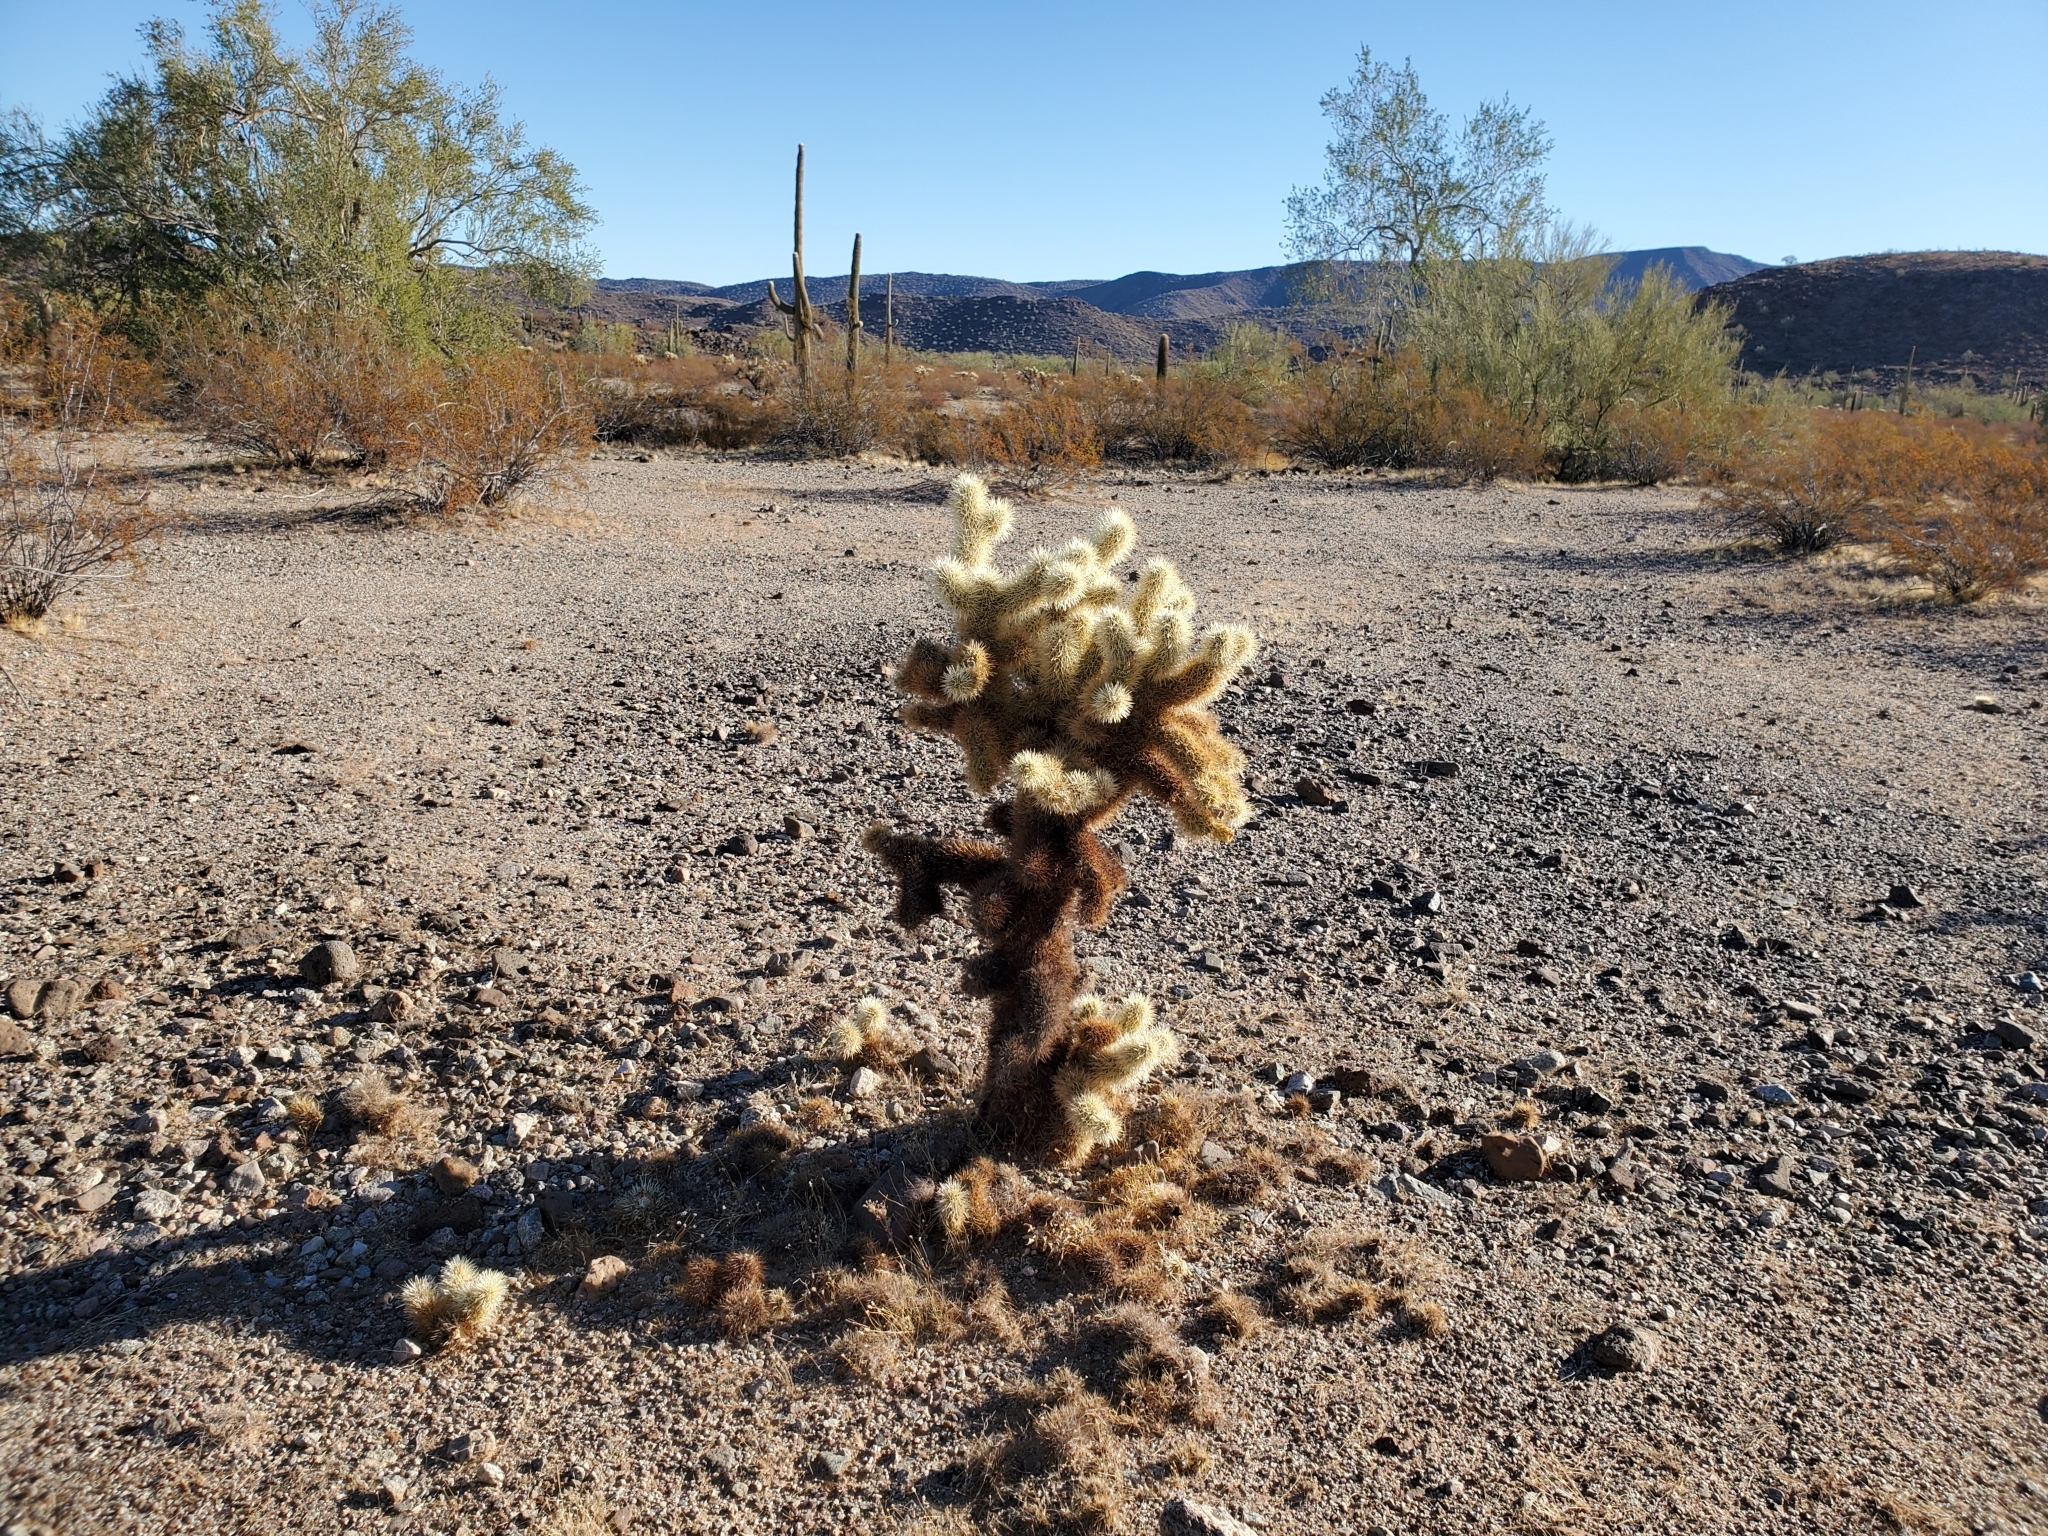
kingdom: Plantae
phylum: Tracheophyta
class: Magnoliopsida
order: Caryophyllales
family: Cactaceae
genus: Cylindropuntia
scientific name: Cylindropuntia fosbergii
